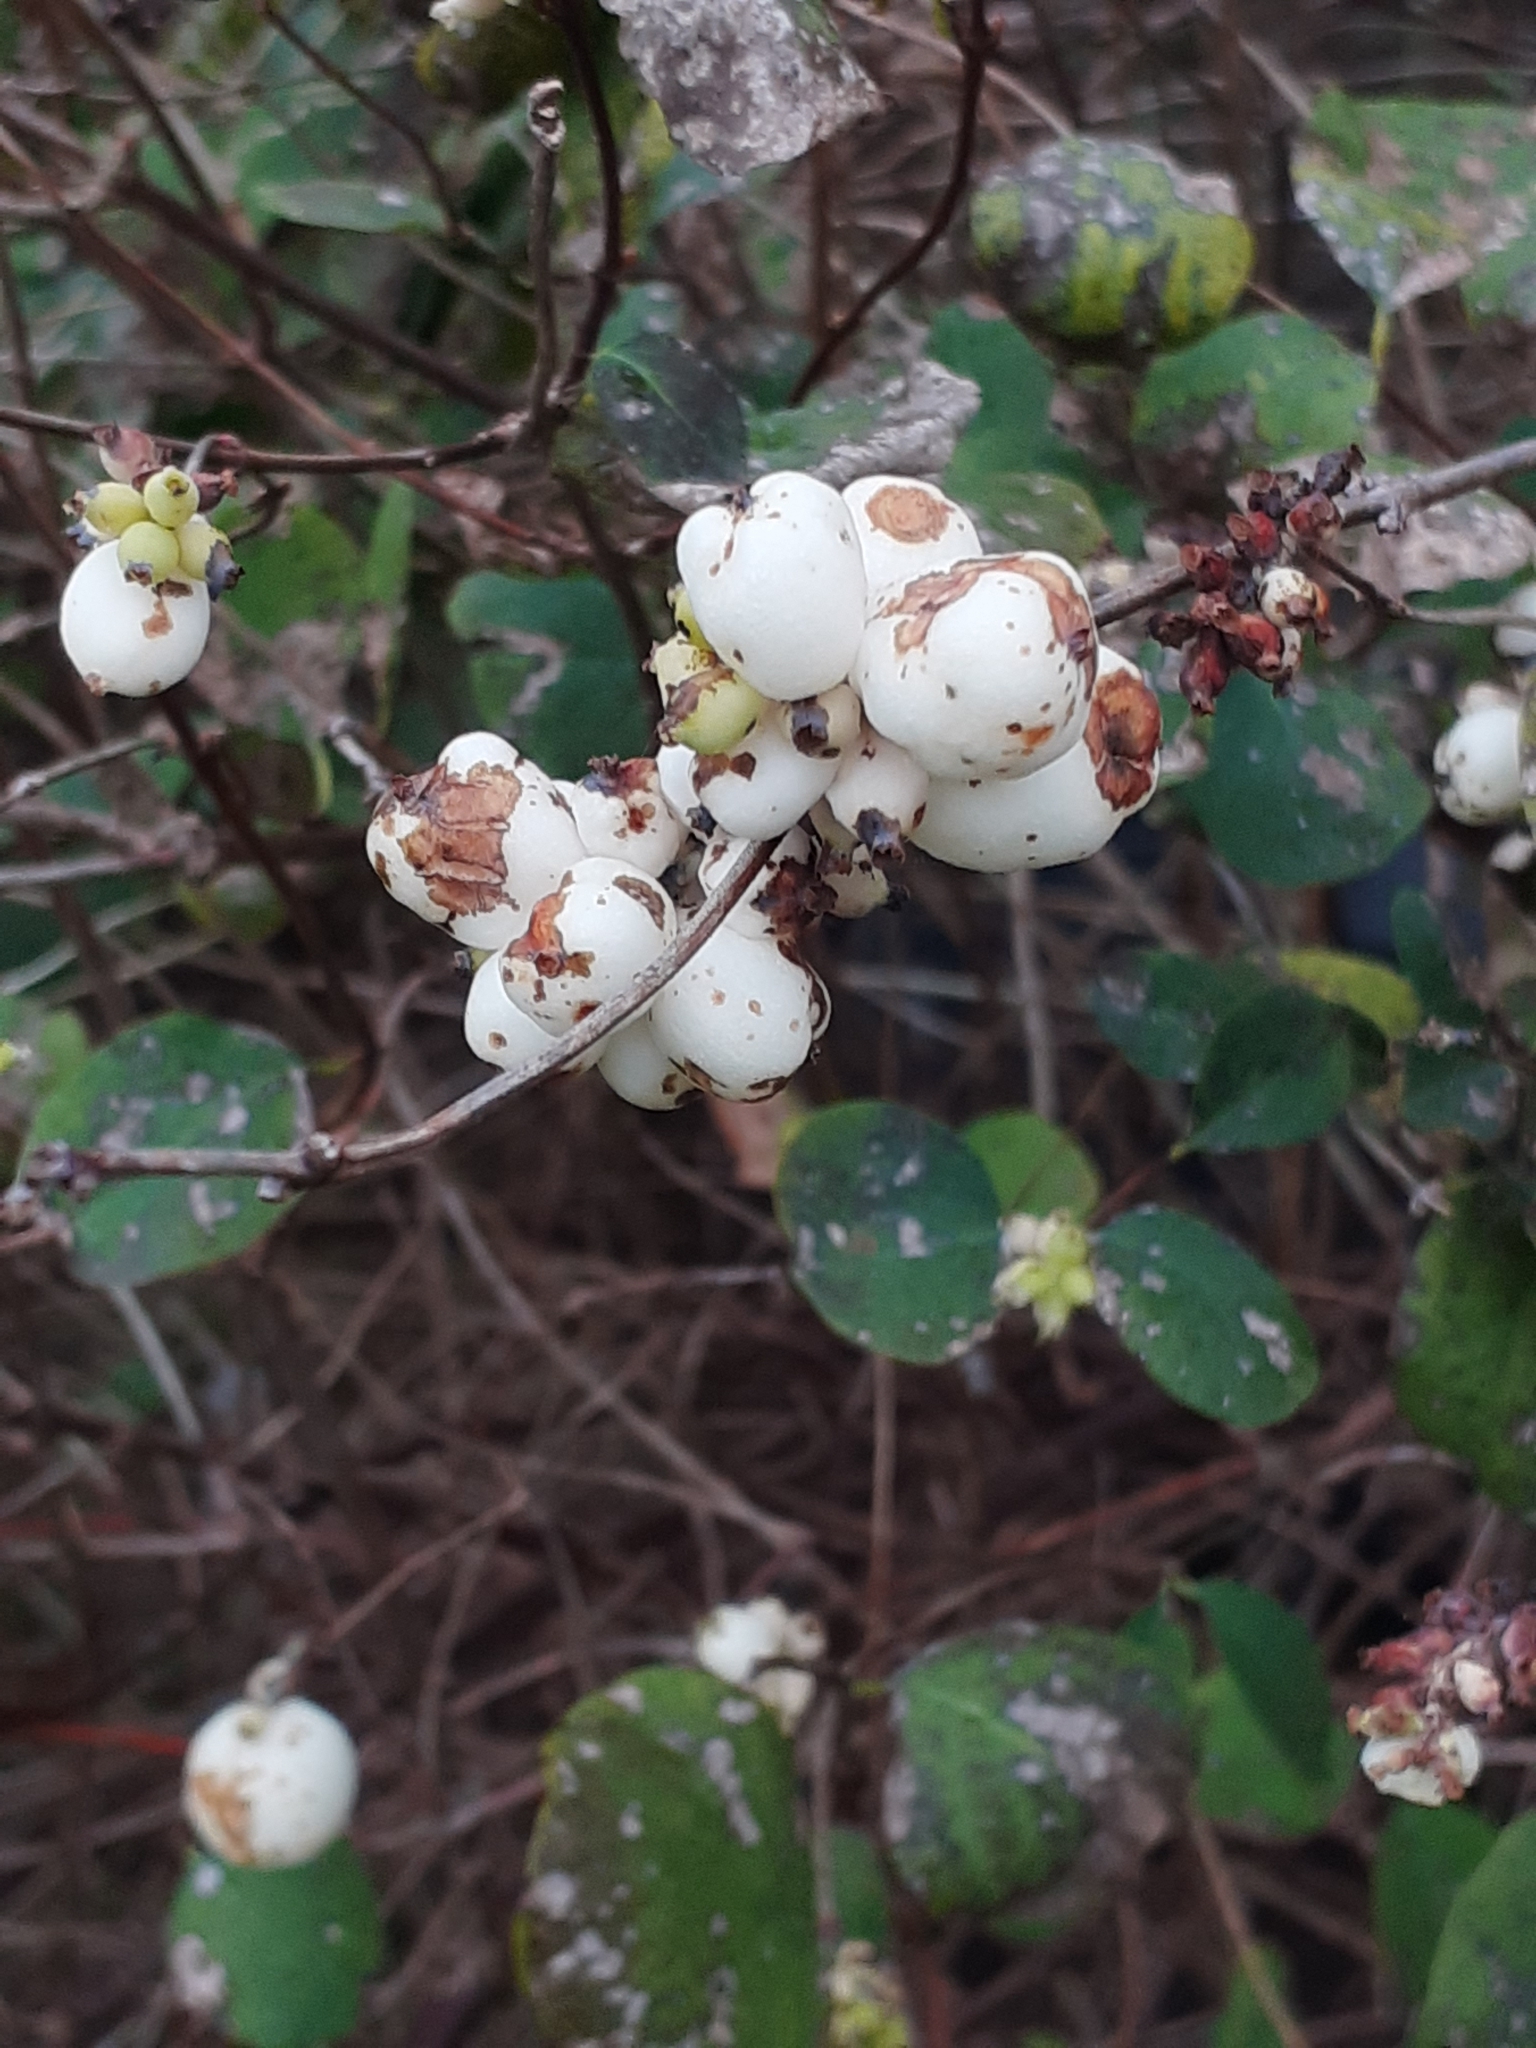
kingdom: Plantae
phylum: Tracheophyta
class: Magnoliopsida
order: Dipsacales
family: Caprifoliaceae
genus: Symphoricarpos
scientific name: Symphoricarpos albus
